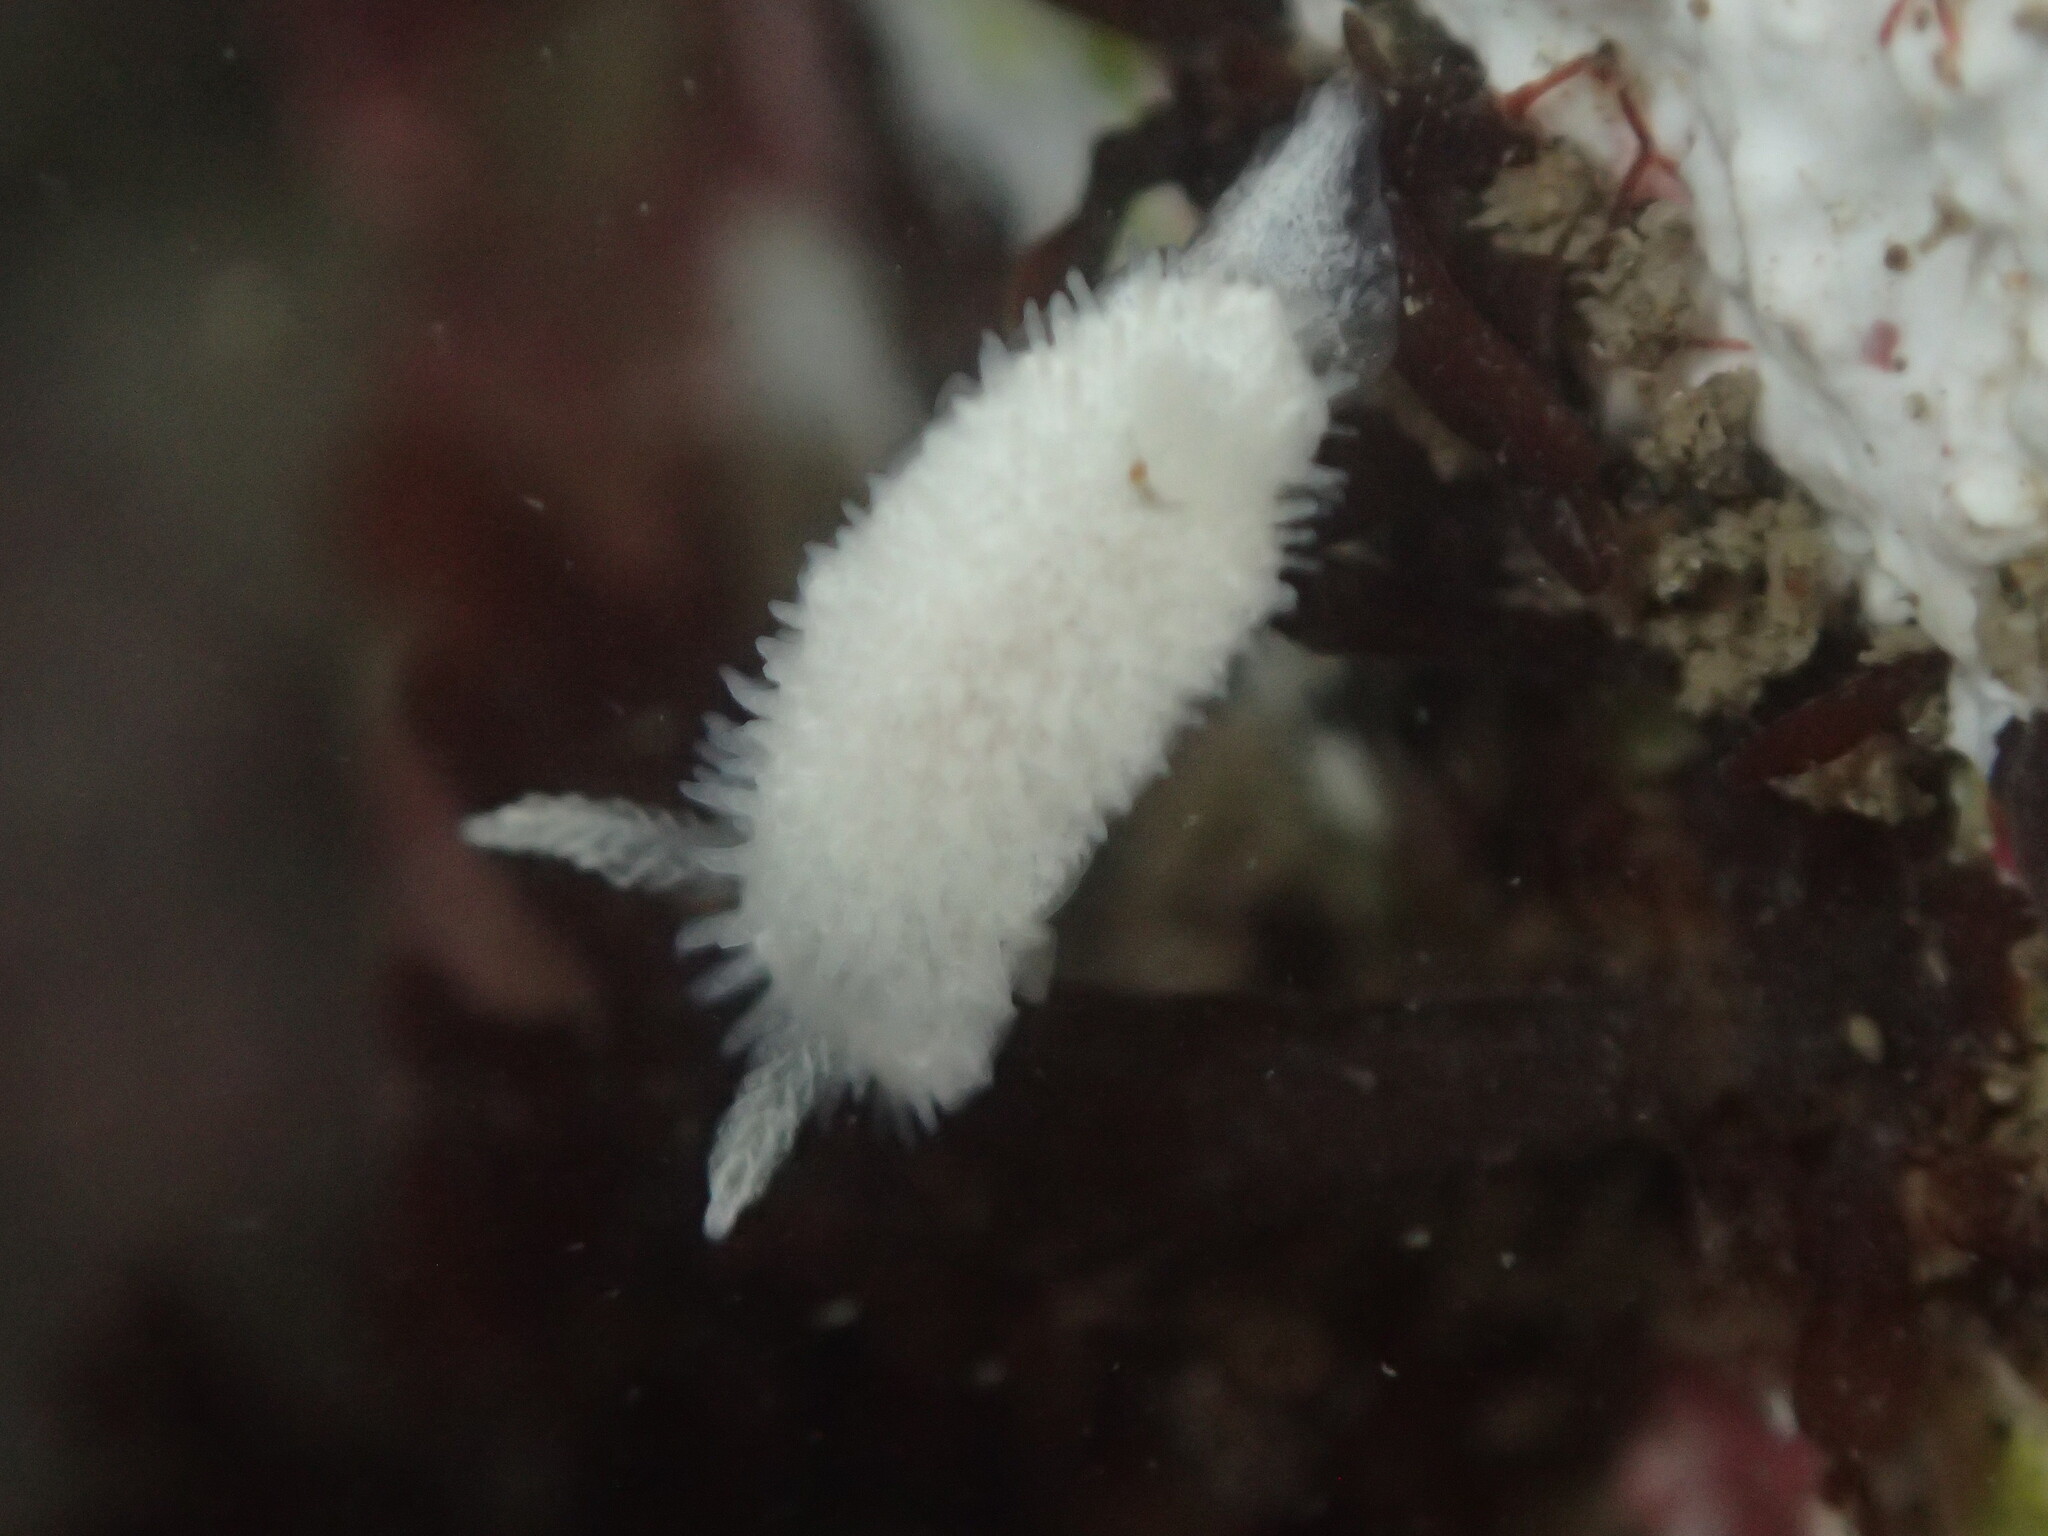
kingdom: Animalia
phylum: Mollusca
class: Gastropoda
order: Nudibranchia
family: Calycidorididae
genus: Diaphorodoris
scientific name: Diaphorodoris lirulatocauda
